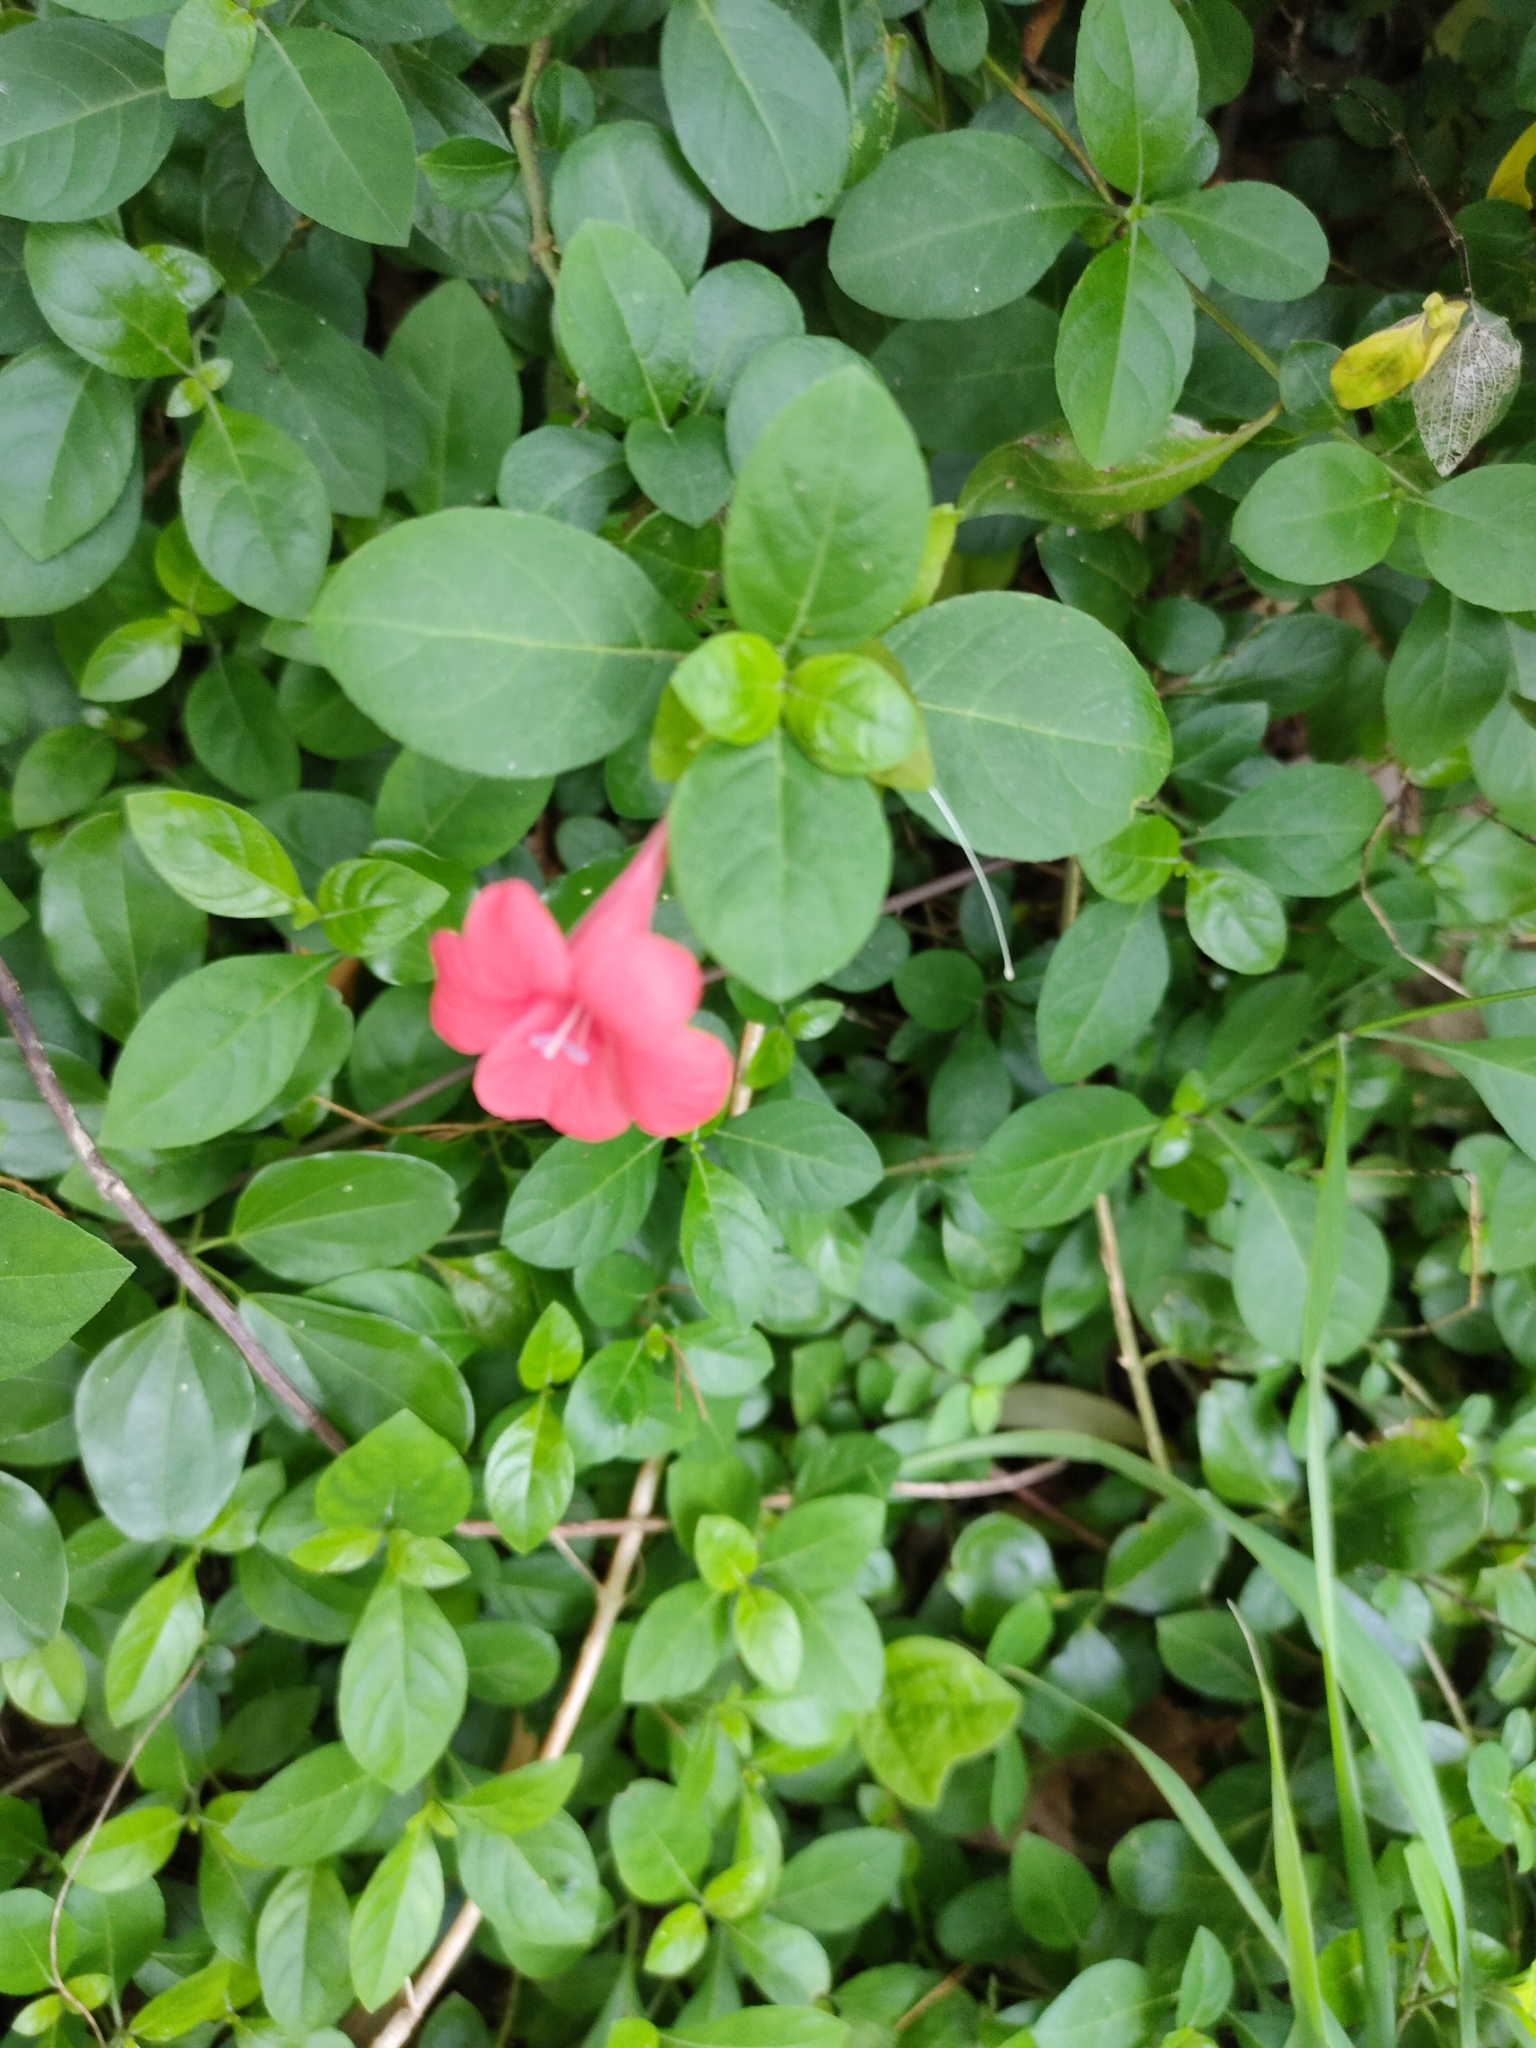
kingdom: Plantae
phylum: Tracheophyta
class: Magnoliopsida
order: Lamiales
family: Acanthaceae
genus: Barleria
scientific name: Barleria repens
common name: Pink-ruellia
